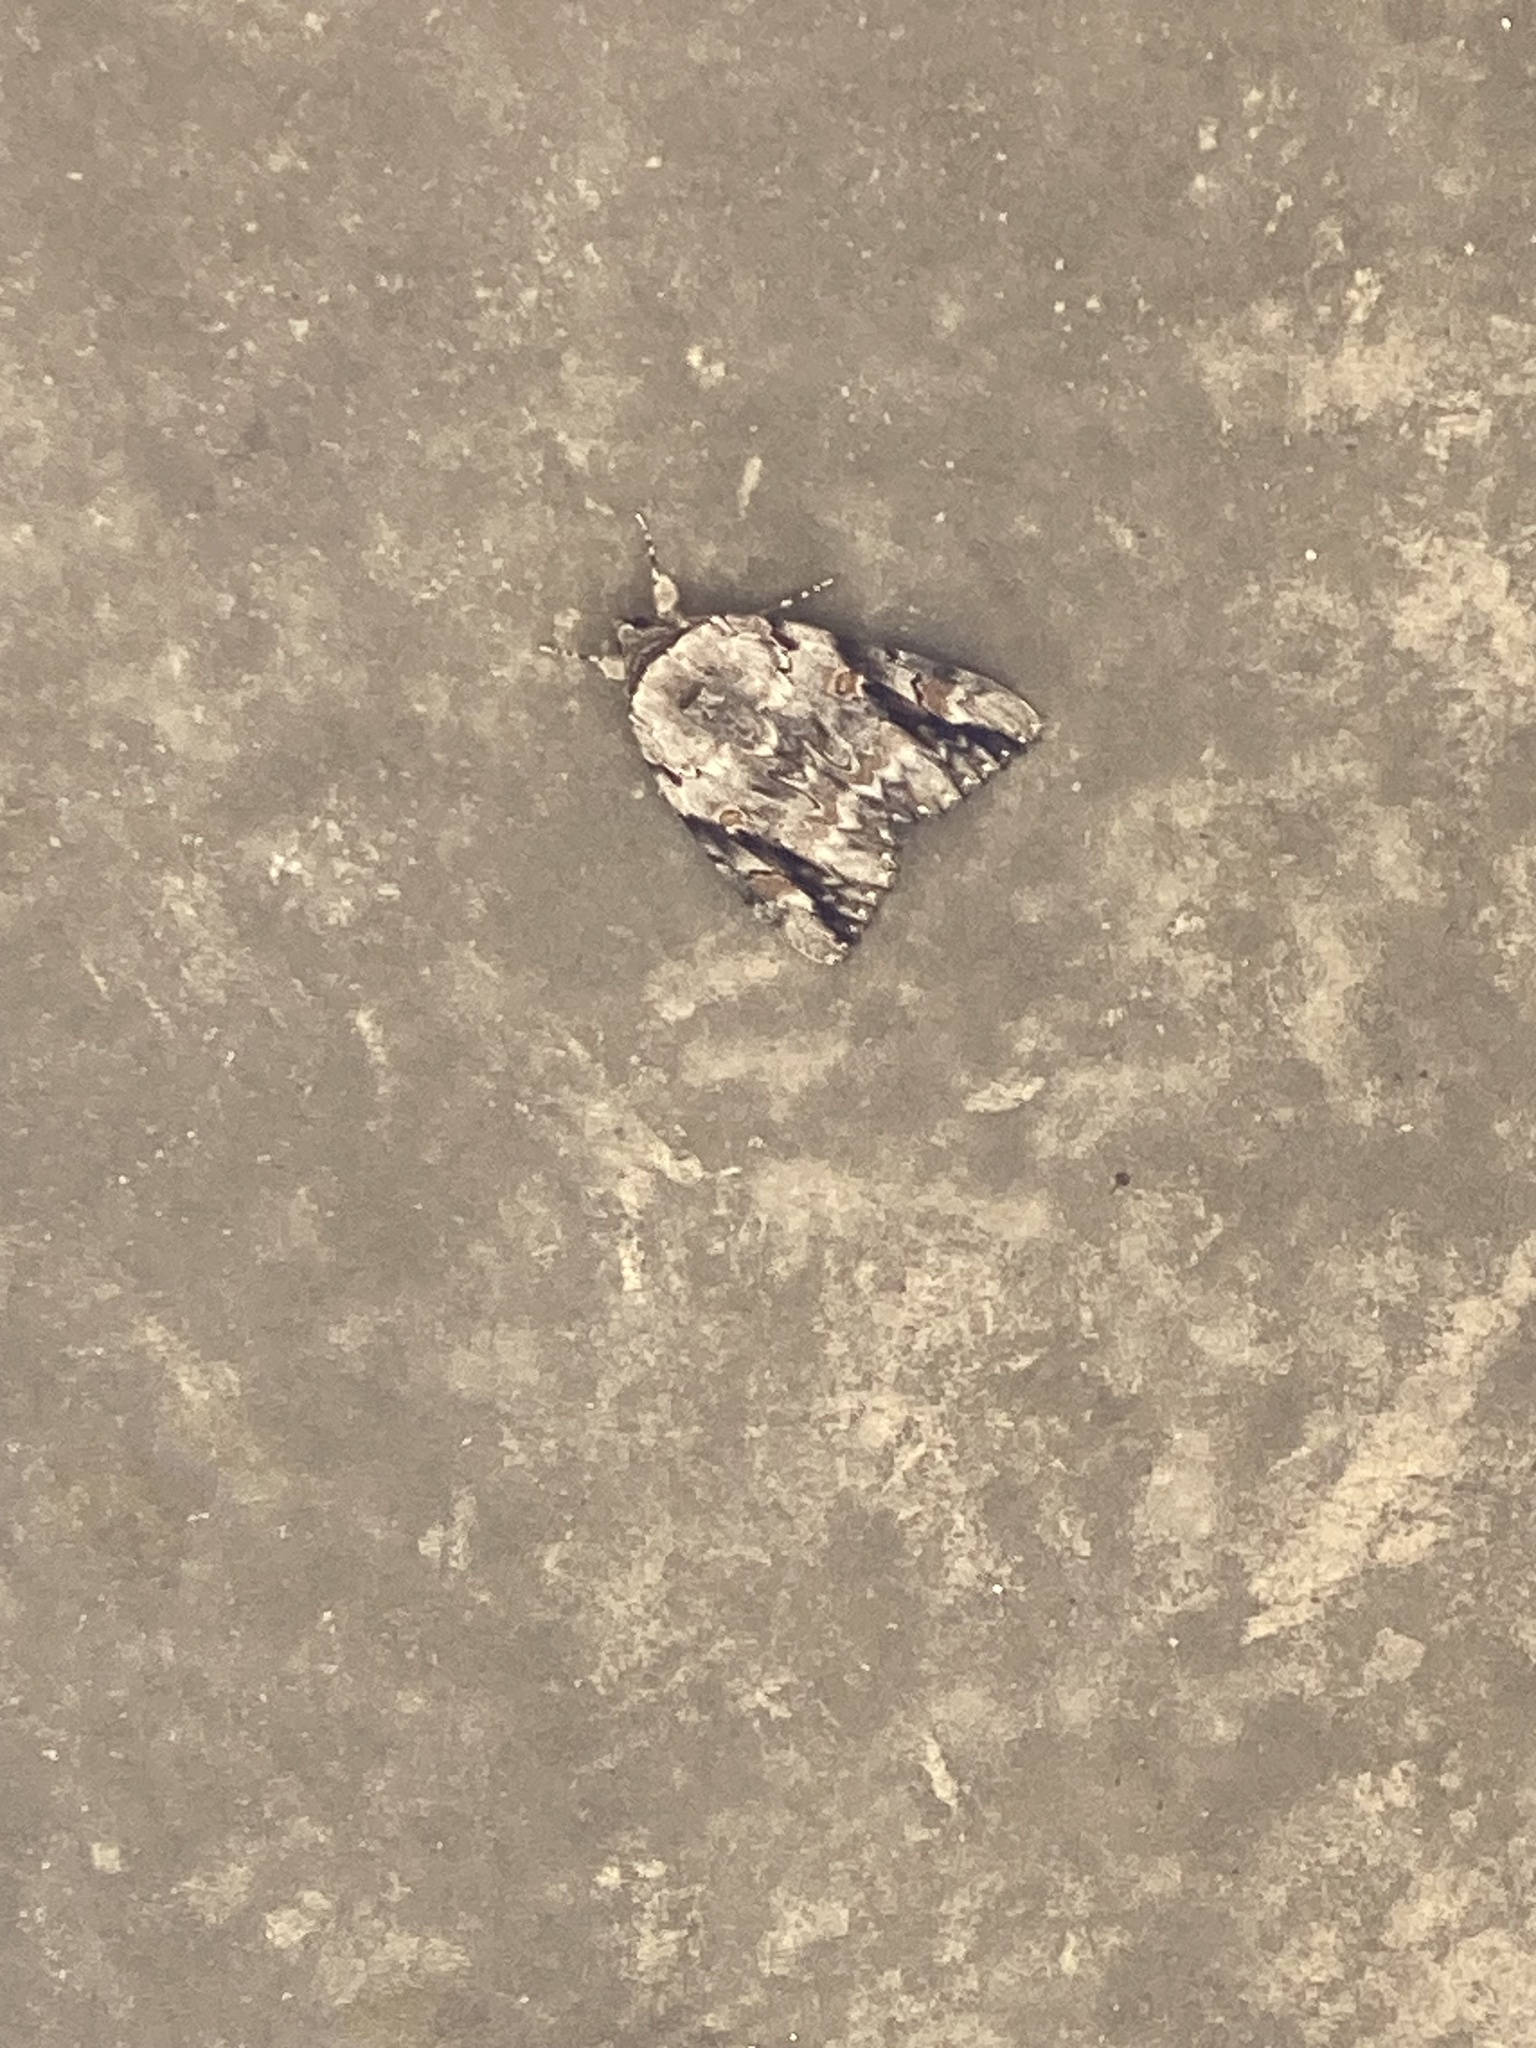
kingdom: Animalia
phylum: Arthropoda
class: Insecta
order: Lepidoptera
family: Erebidae
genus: Catocala
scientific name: Catocala maestosa
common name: Sad underwing
